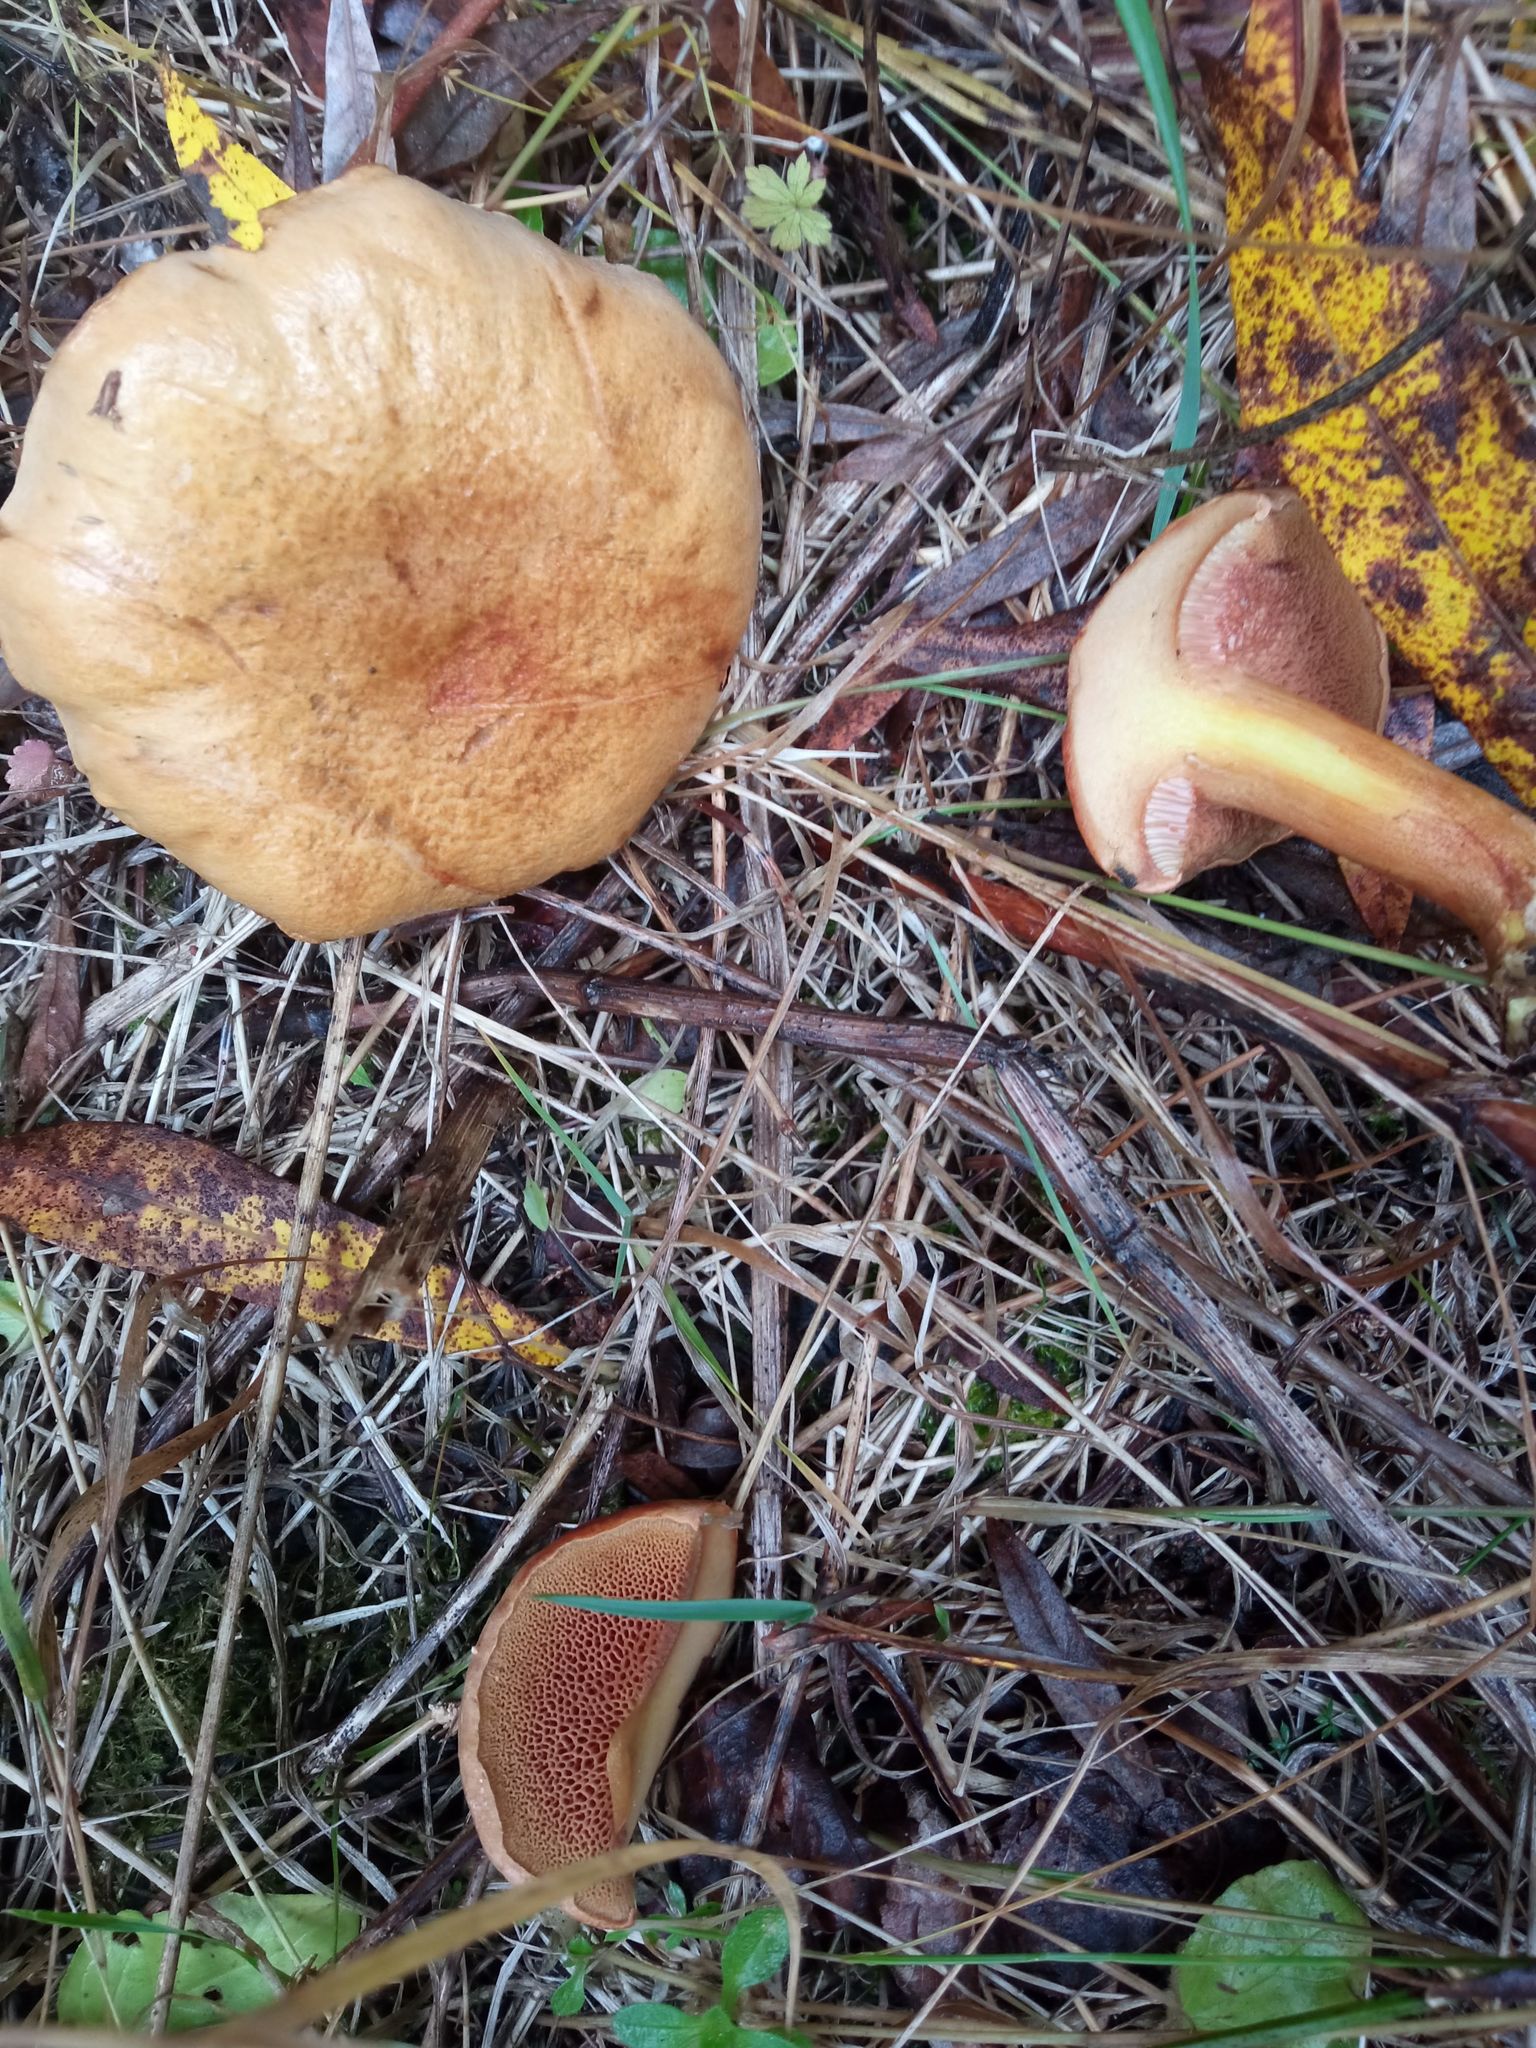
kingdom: Fungi
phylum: Basidiomycota
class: Agaricomycetes
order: Boletales
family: Boletaceae
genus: Chalciporus
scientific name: Chalciporus piperatus
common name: Peppery bolete
